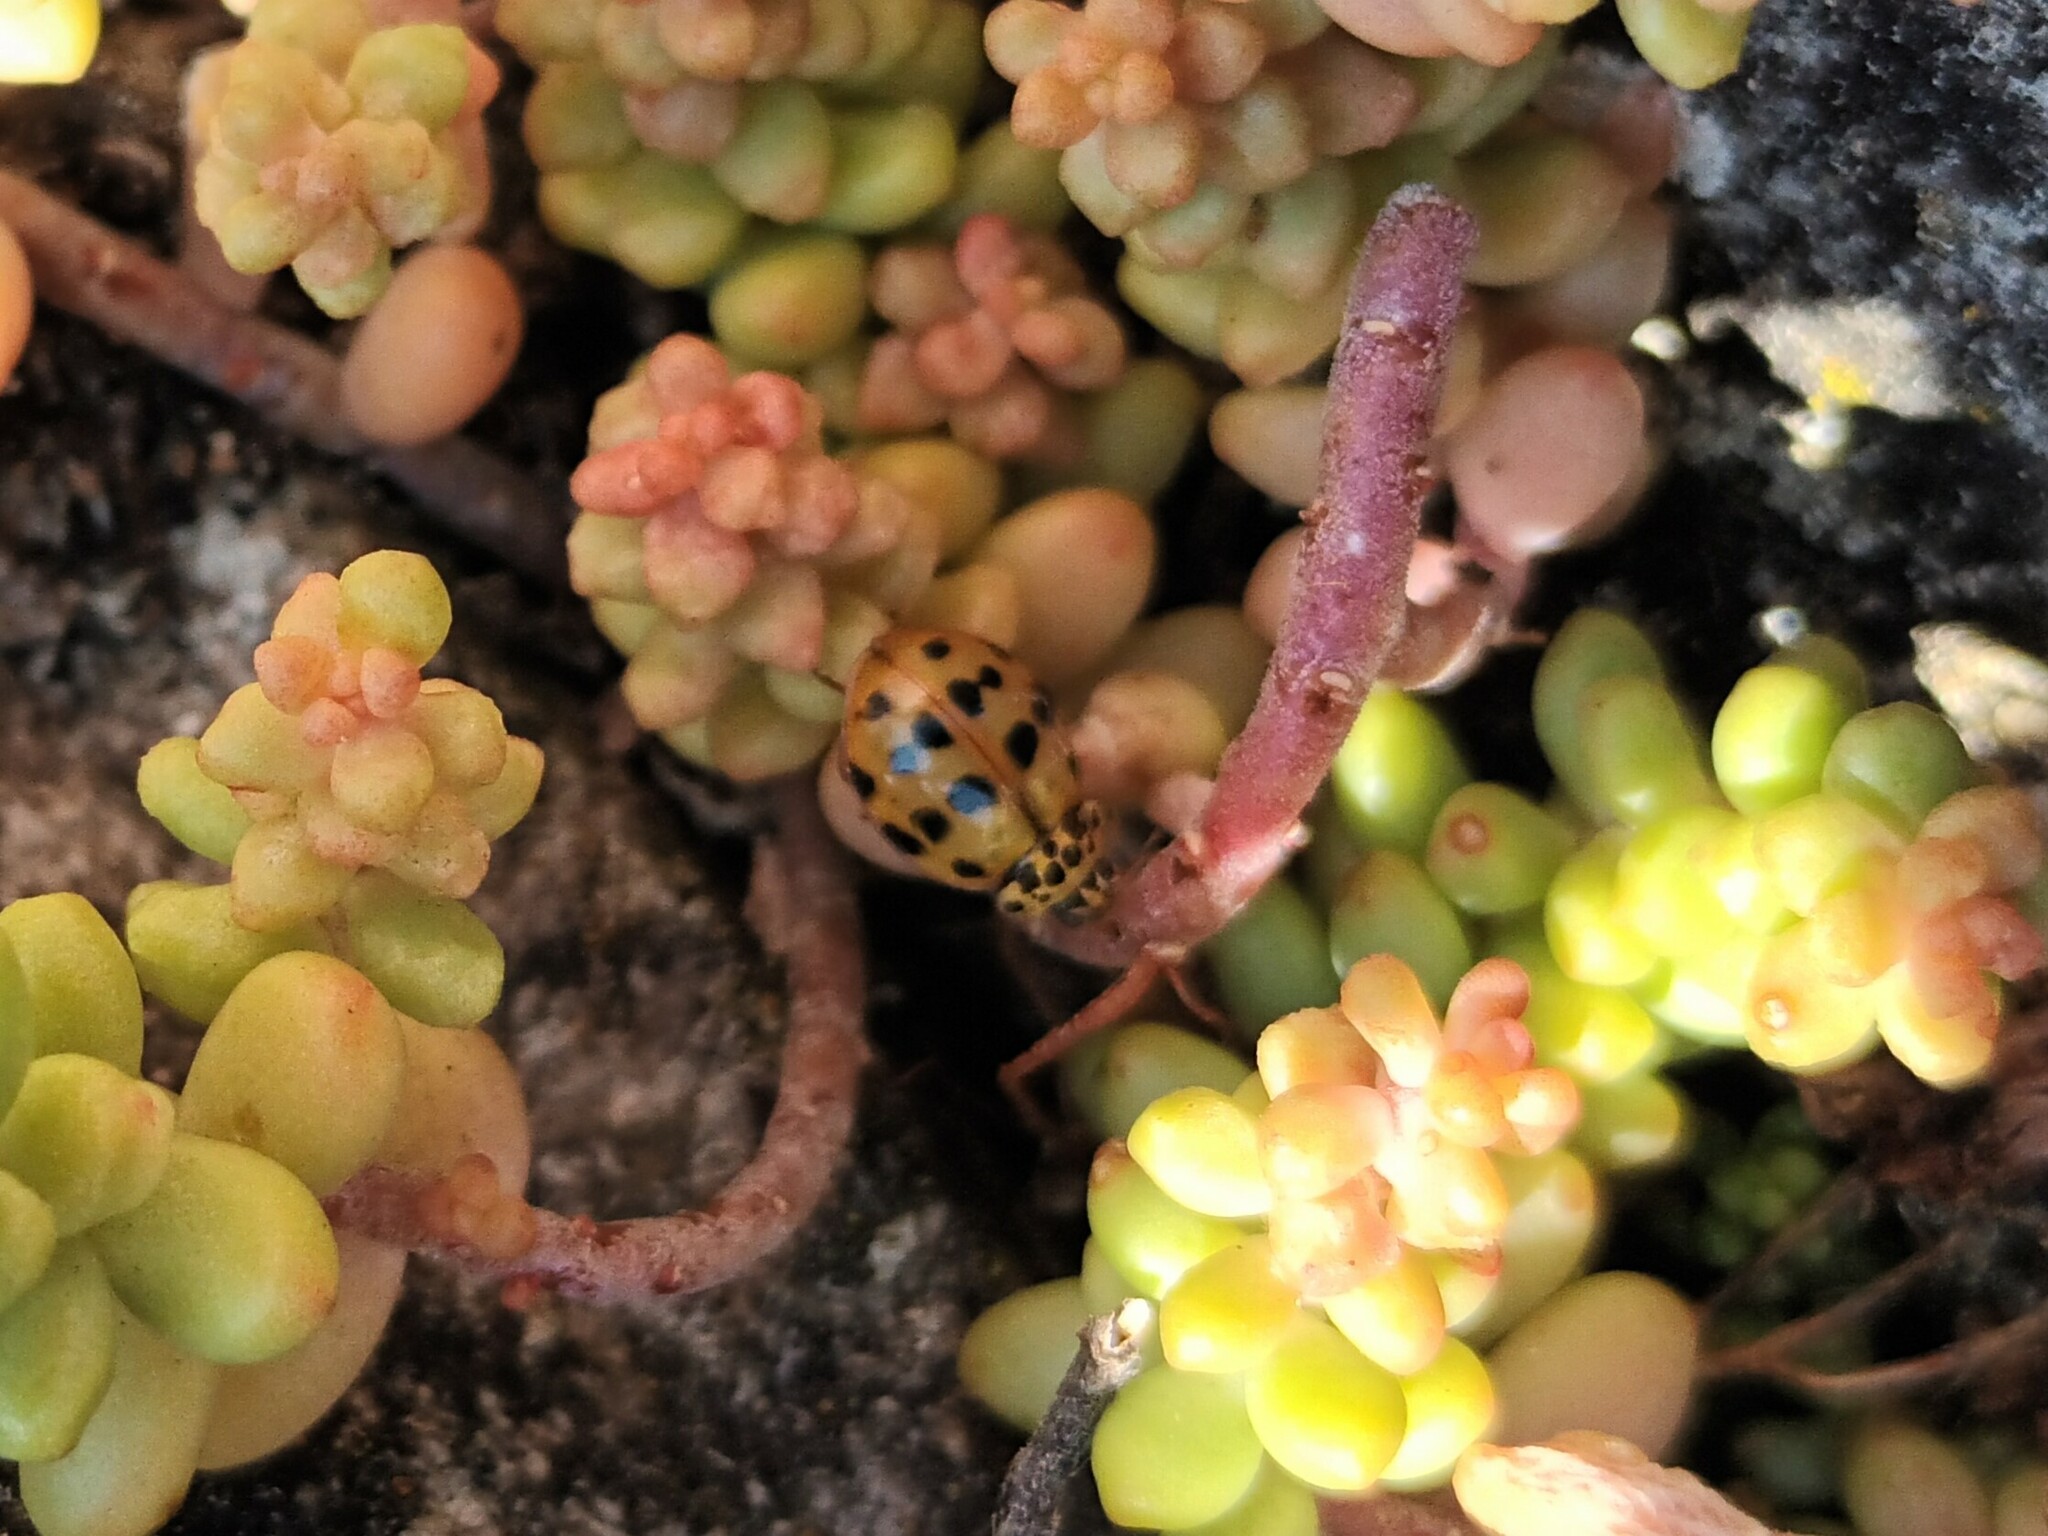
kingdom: Animalia
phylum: Arthropoda
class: Insecta
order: Coleoptera
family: Coccinellidae
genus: Harmonia
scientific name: Harmonia quadripunctata
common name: Cream-streaked ladybird
